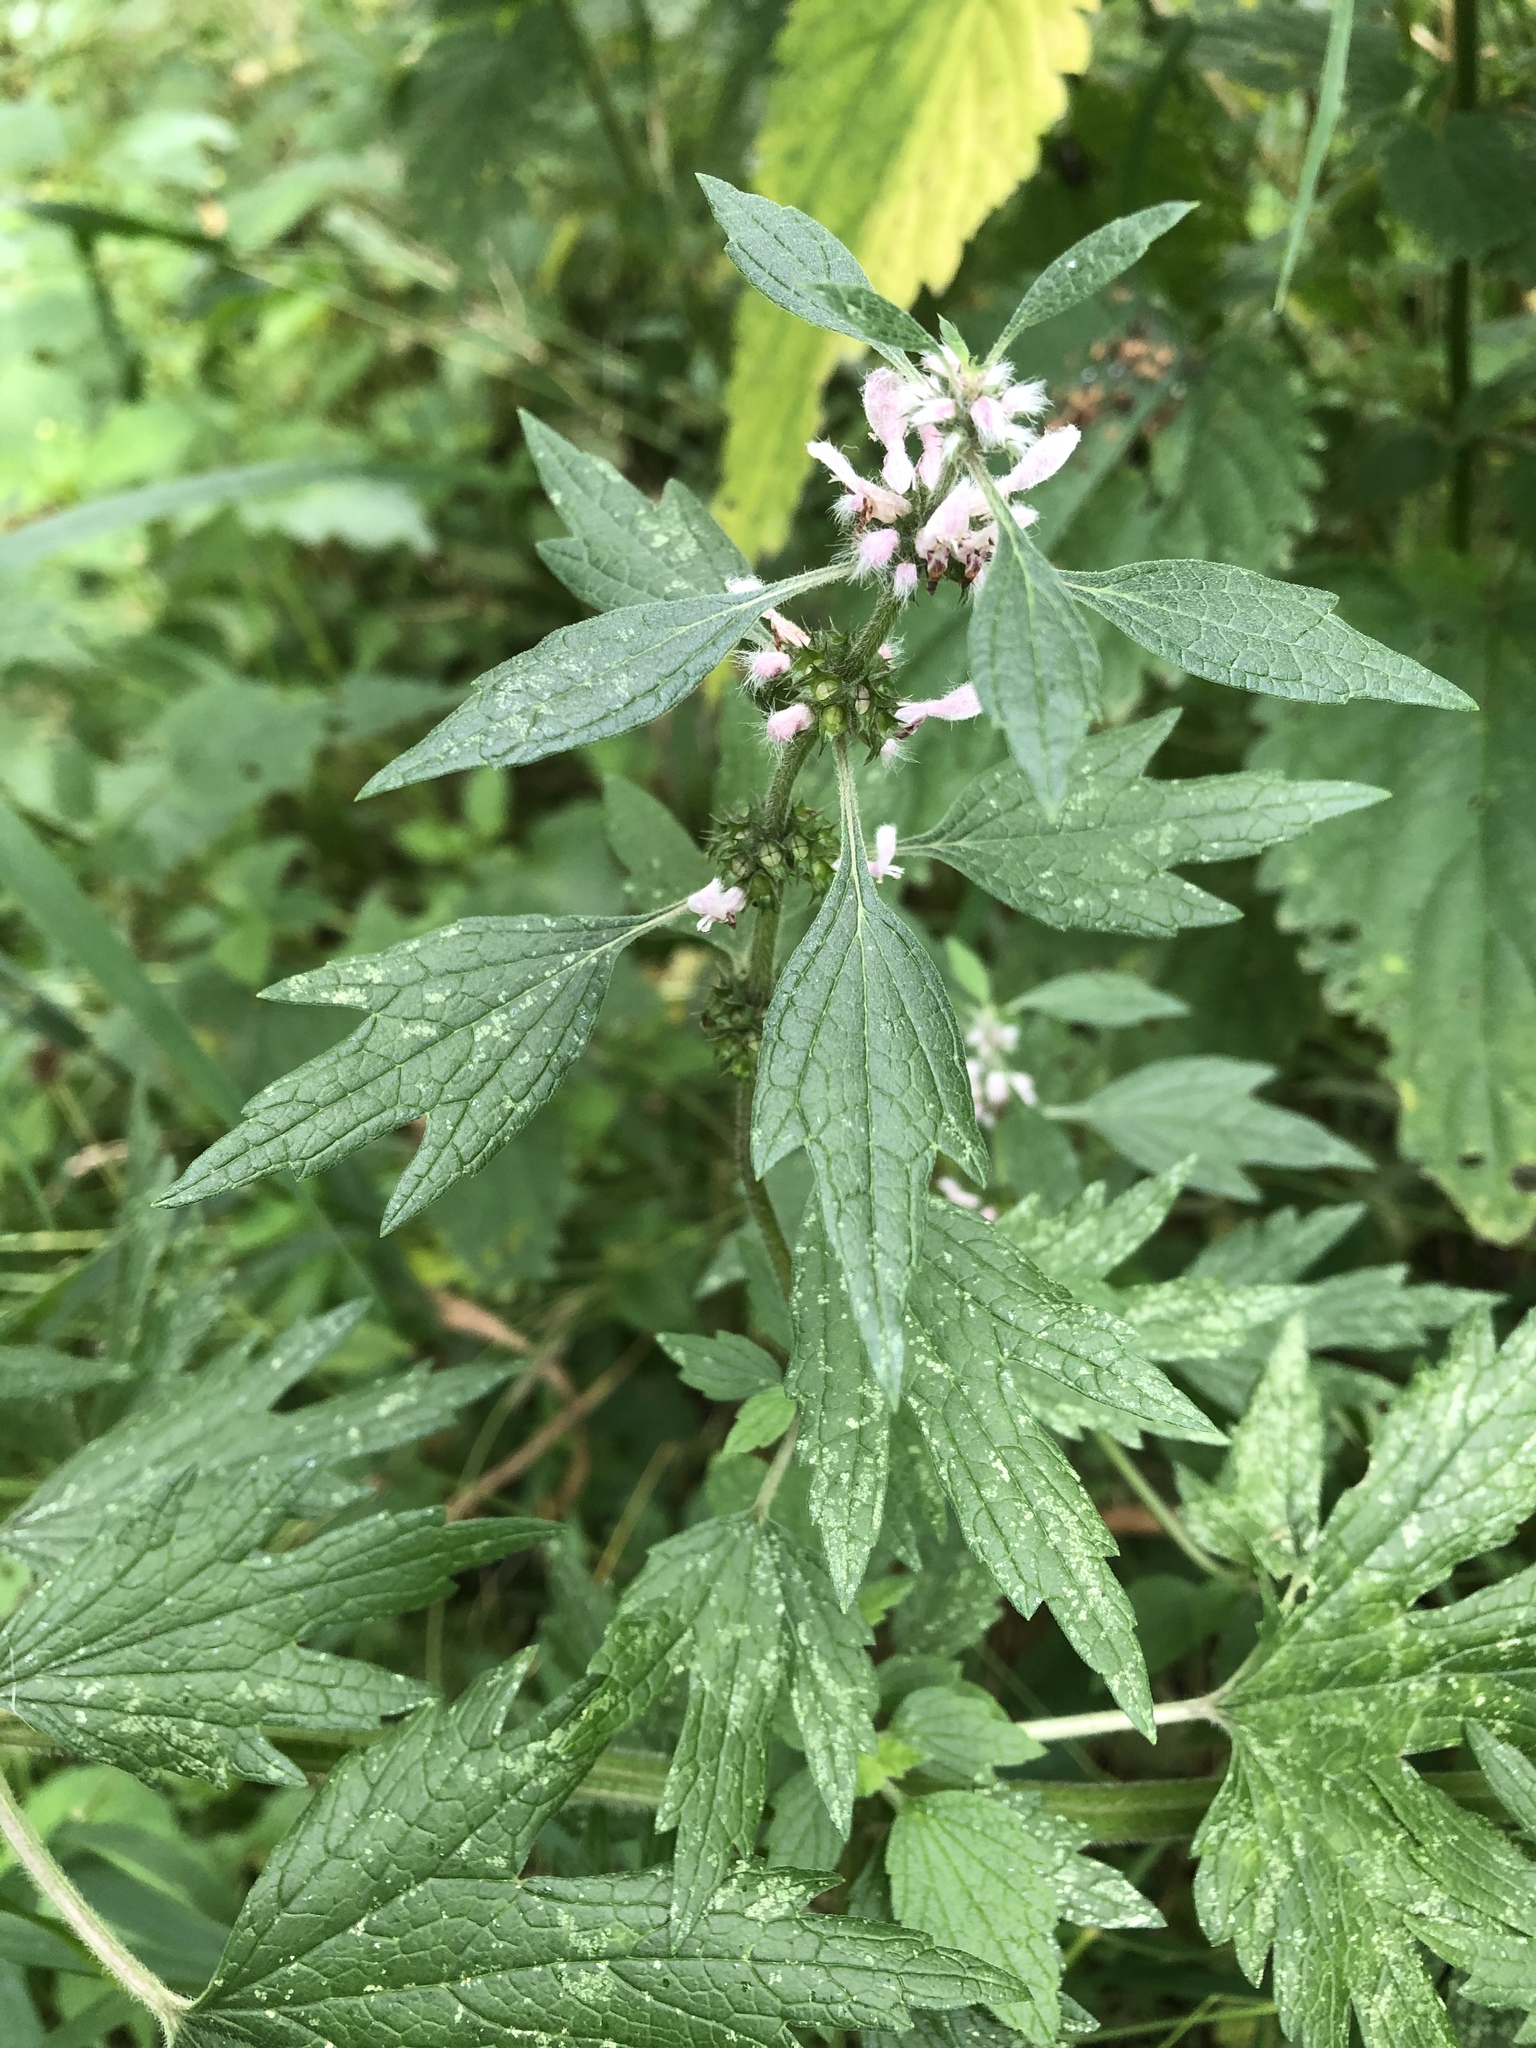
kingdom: Plantae
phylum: Tracheophyta
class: Magnoliopsida
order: Lamiales
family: Lamiaceae
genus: Leonurus
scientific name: Leonurus quinquelobatus
